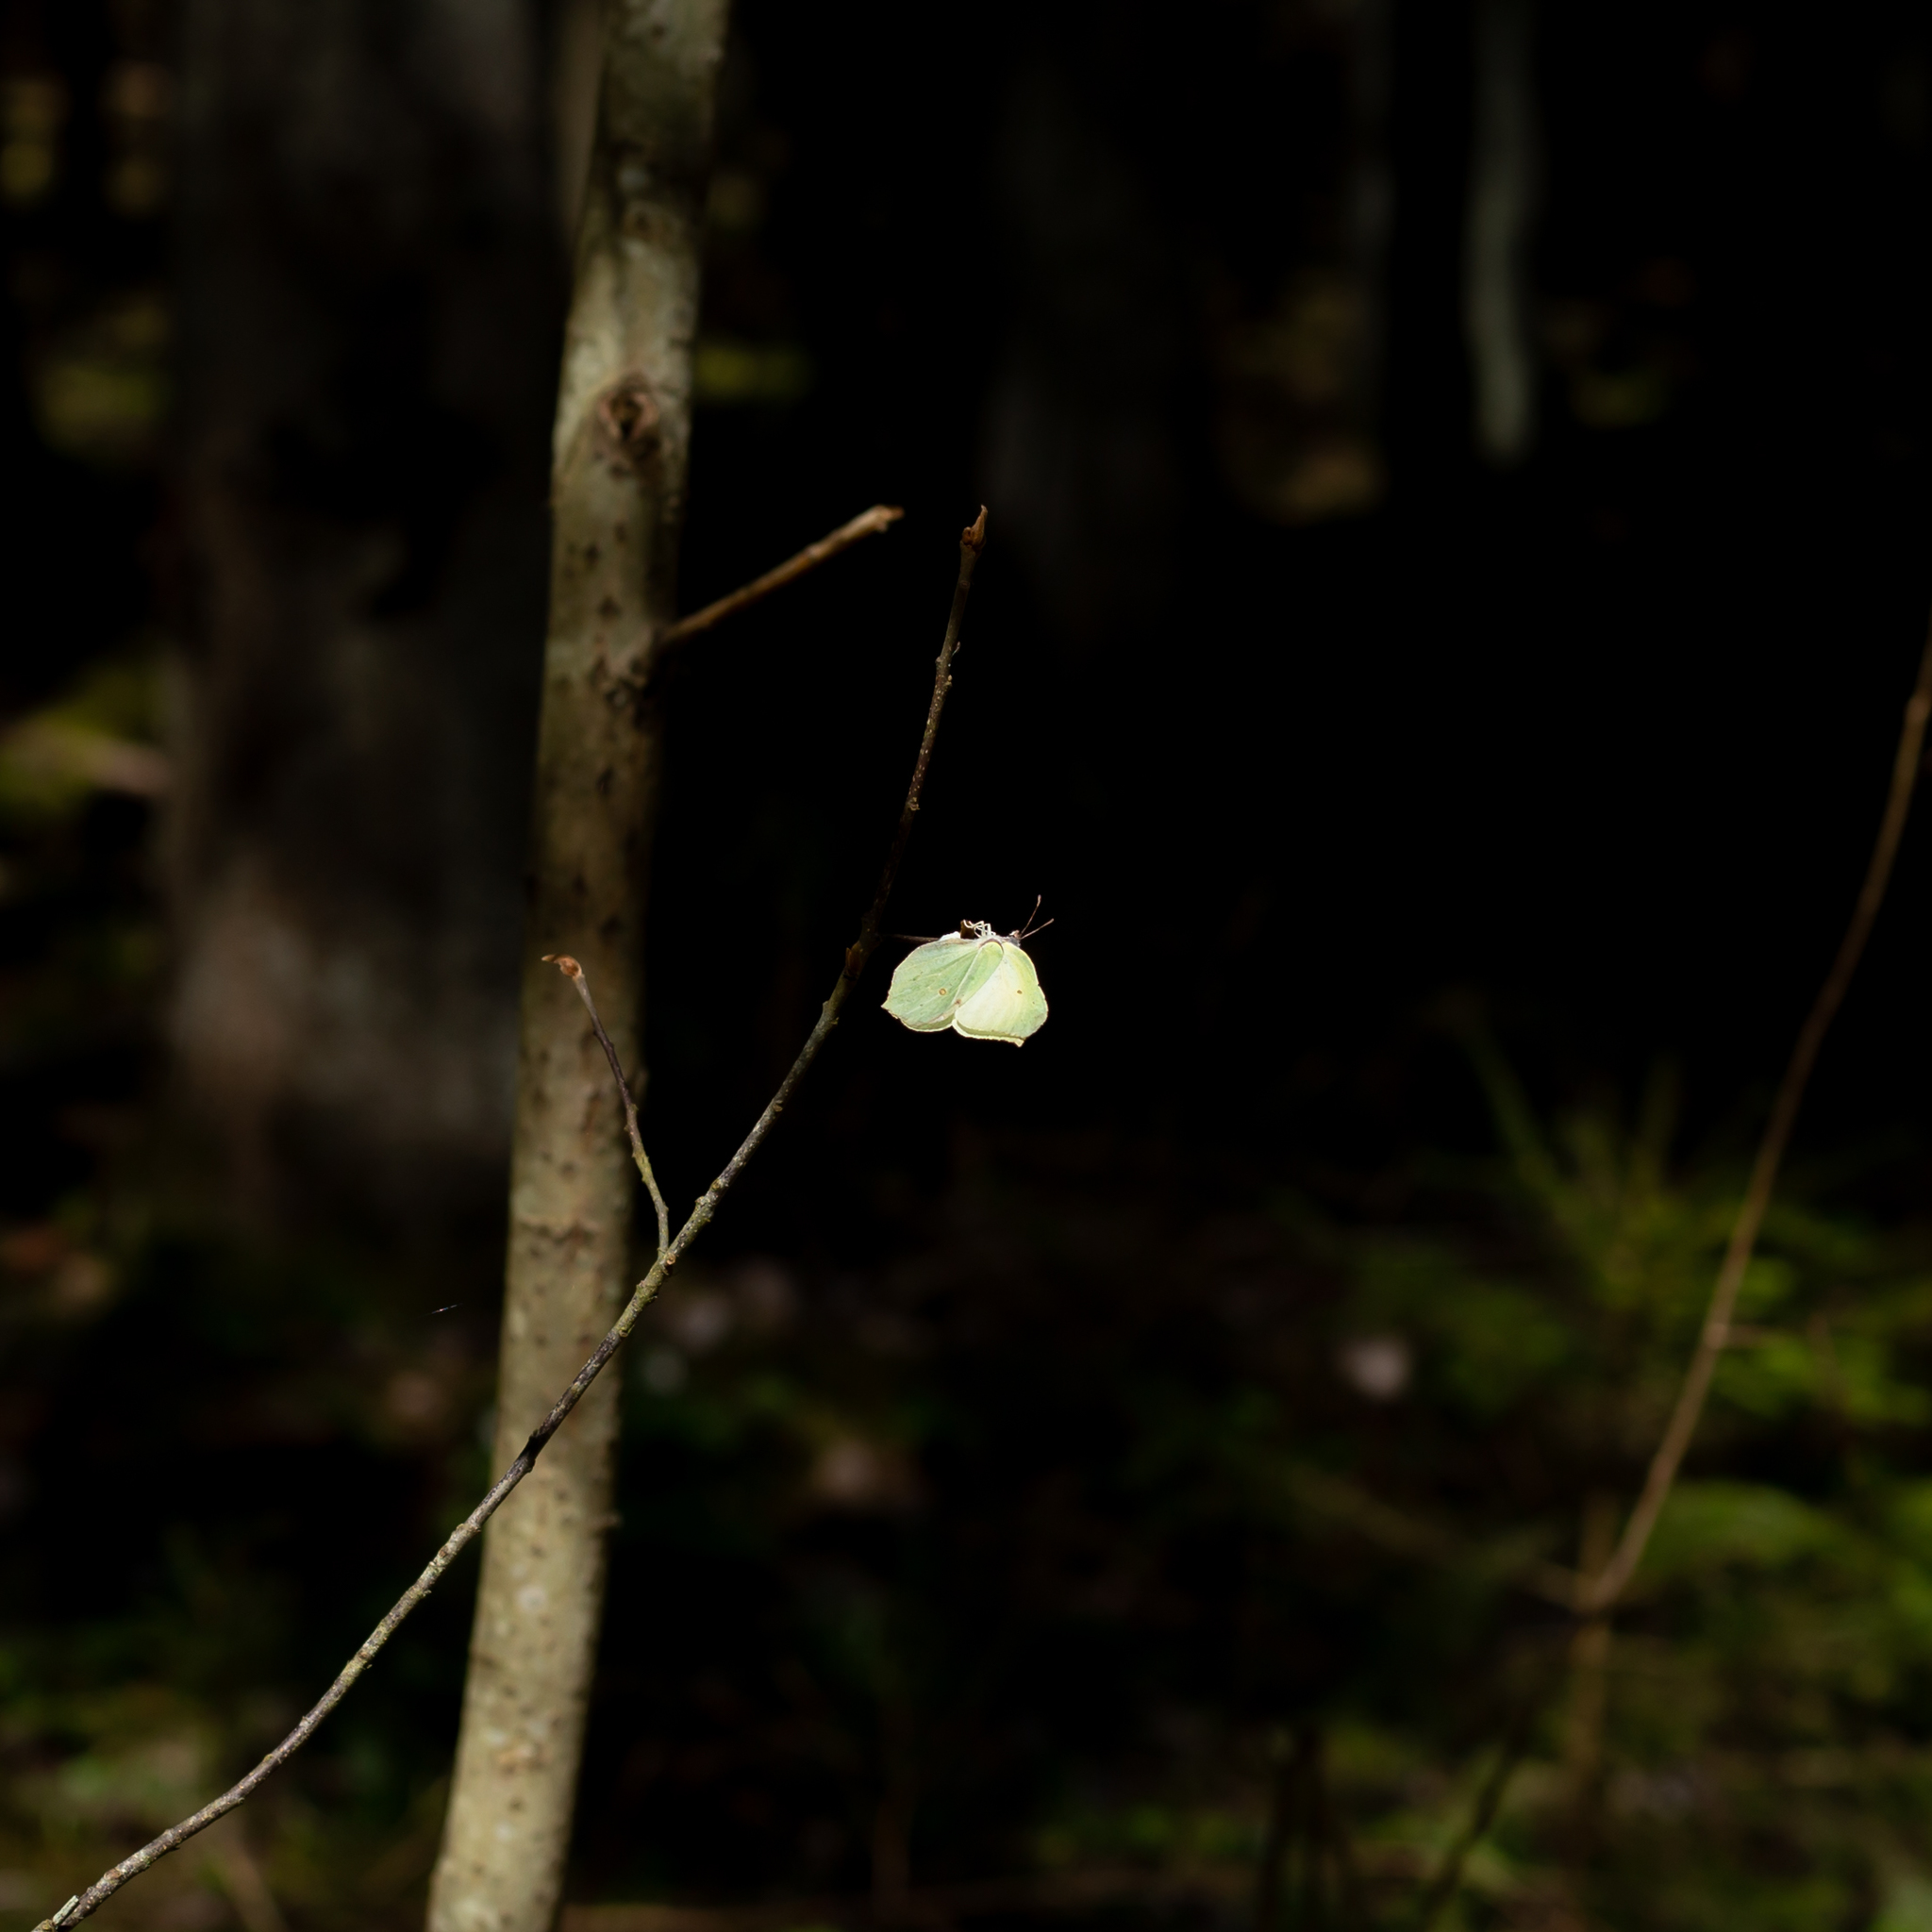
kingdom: Animalia
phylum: Arthropoda
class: Insecta
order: Lepidoptera
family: Pieridae
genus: Gonepteryx
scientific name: Gonepteryx rhamni
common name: Brimstone
